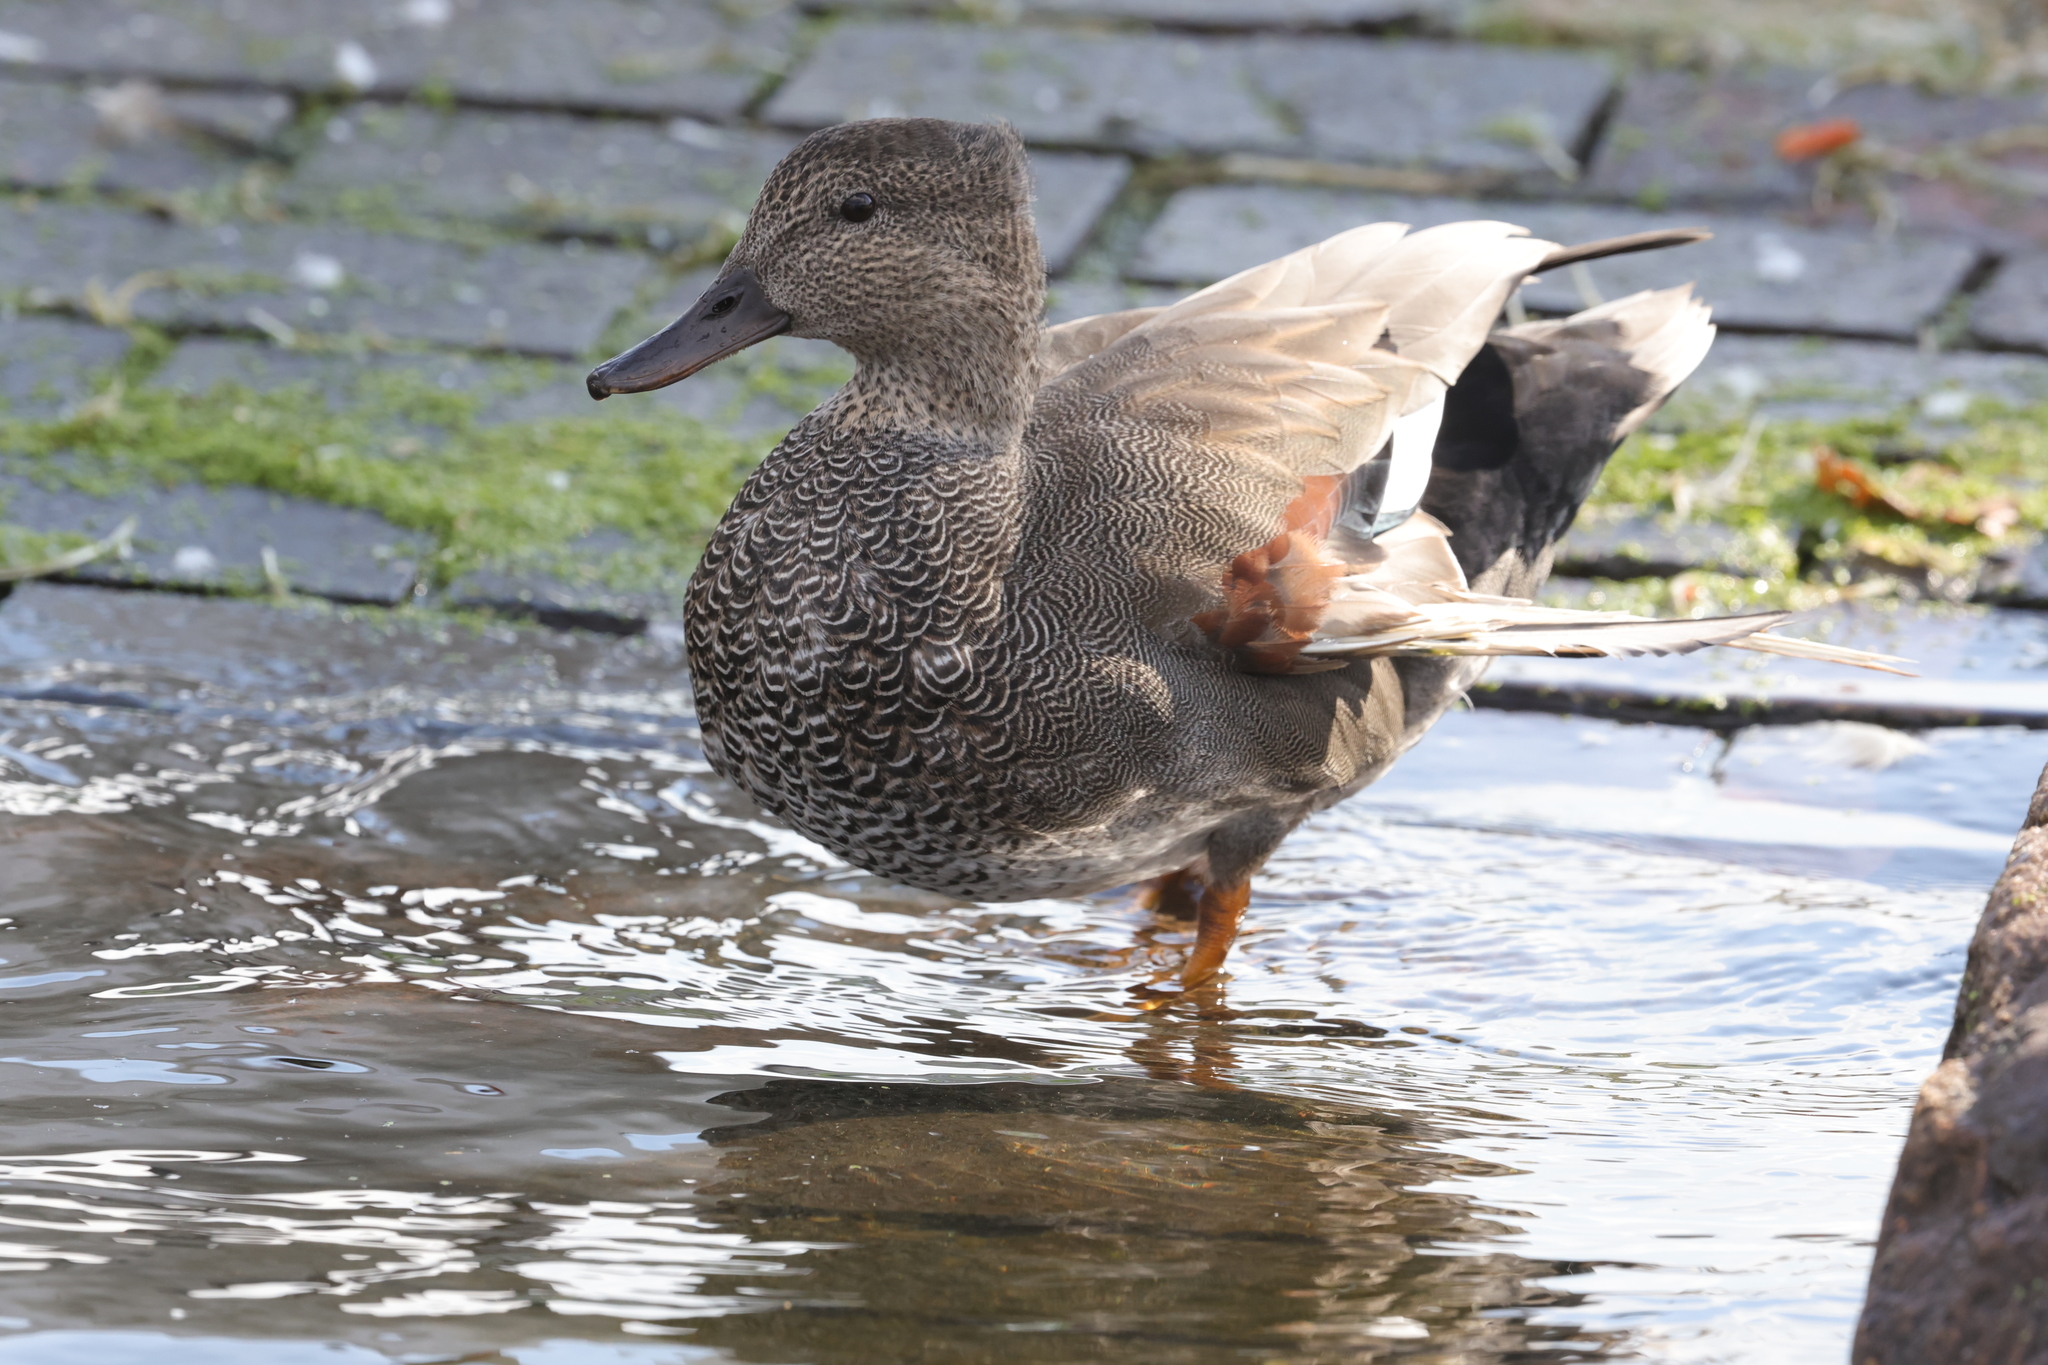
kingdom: Animalia
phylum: Chordata
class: Aves
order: Anseriformes
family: Anatidae
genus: Mareca
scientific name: Mareca strepera
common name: Gadwall
